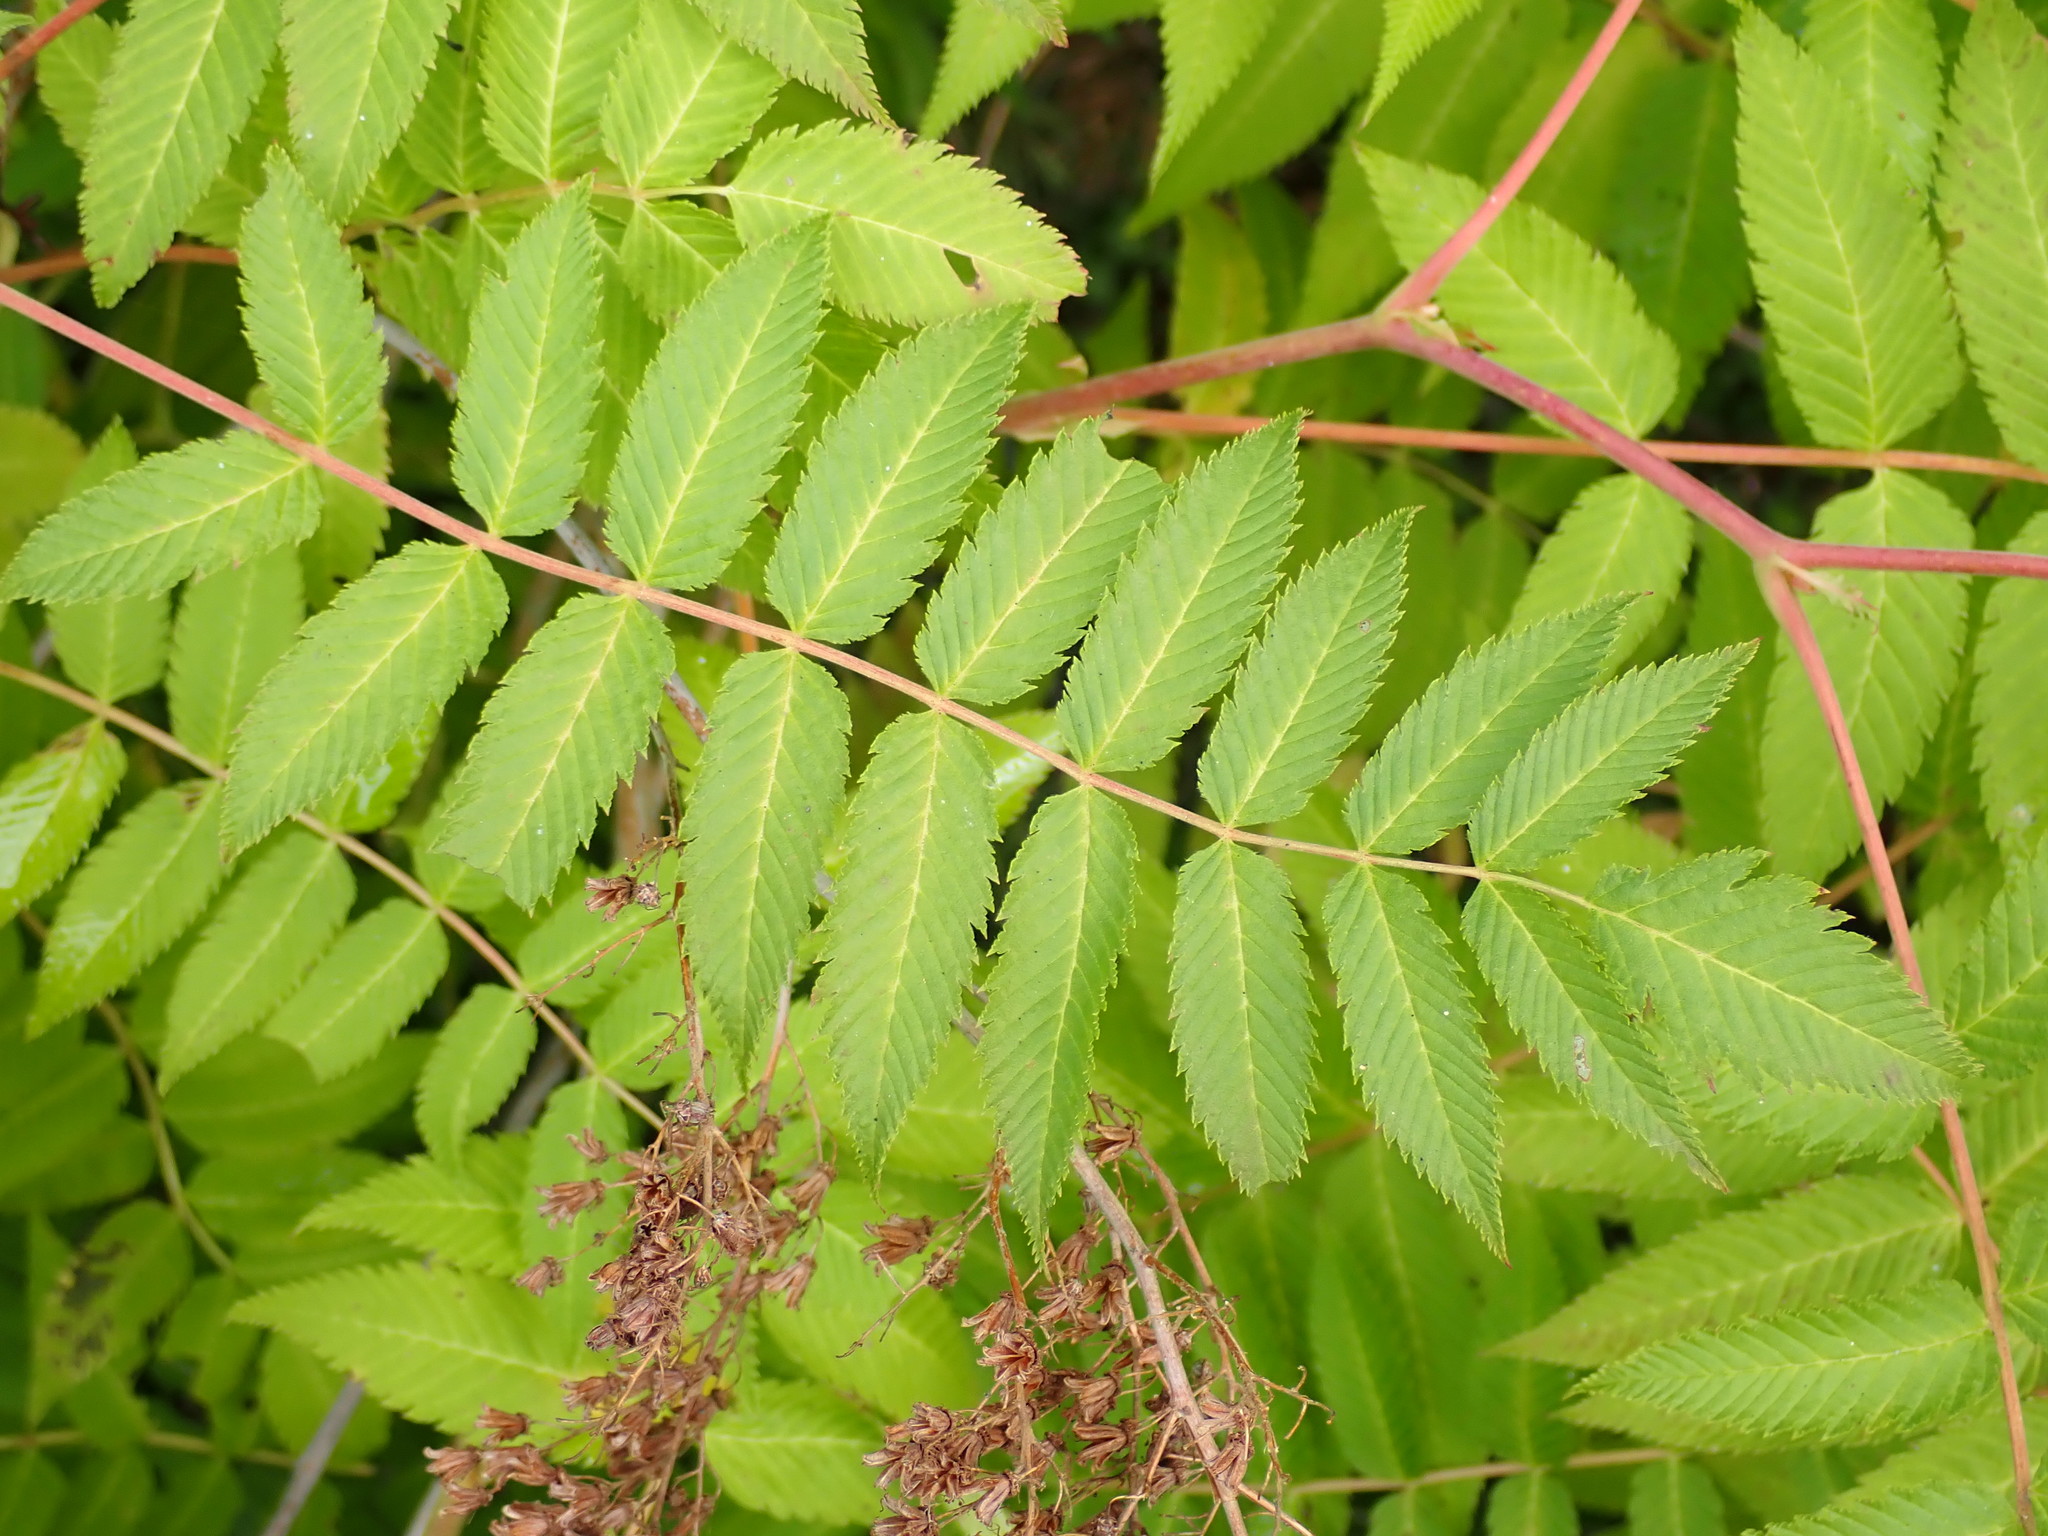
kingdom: Plantae
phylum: Tracheophyta
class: Magnoliopsida
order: Rosales
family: Rosaceae
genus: Sorbaria
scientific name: Sorbaria sorbifolia
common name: False spiraea
